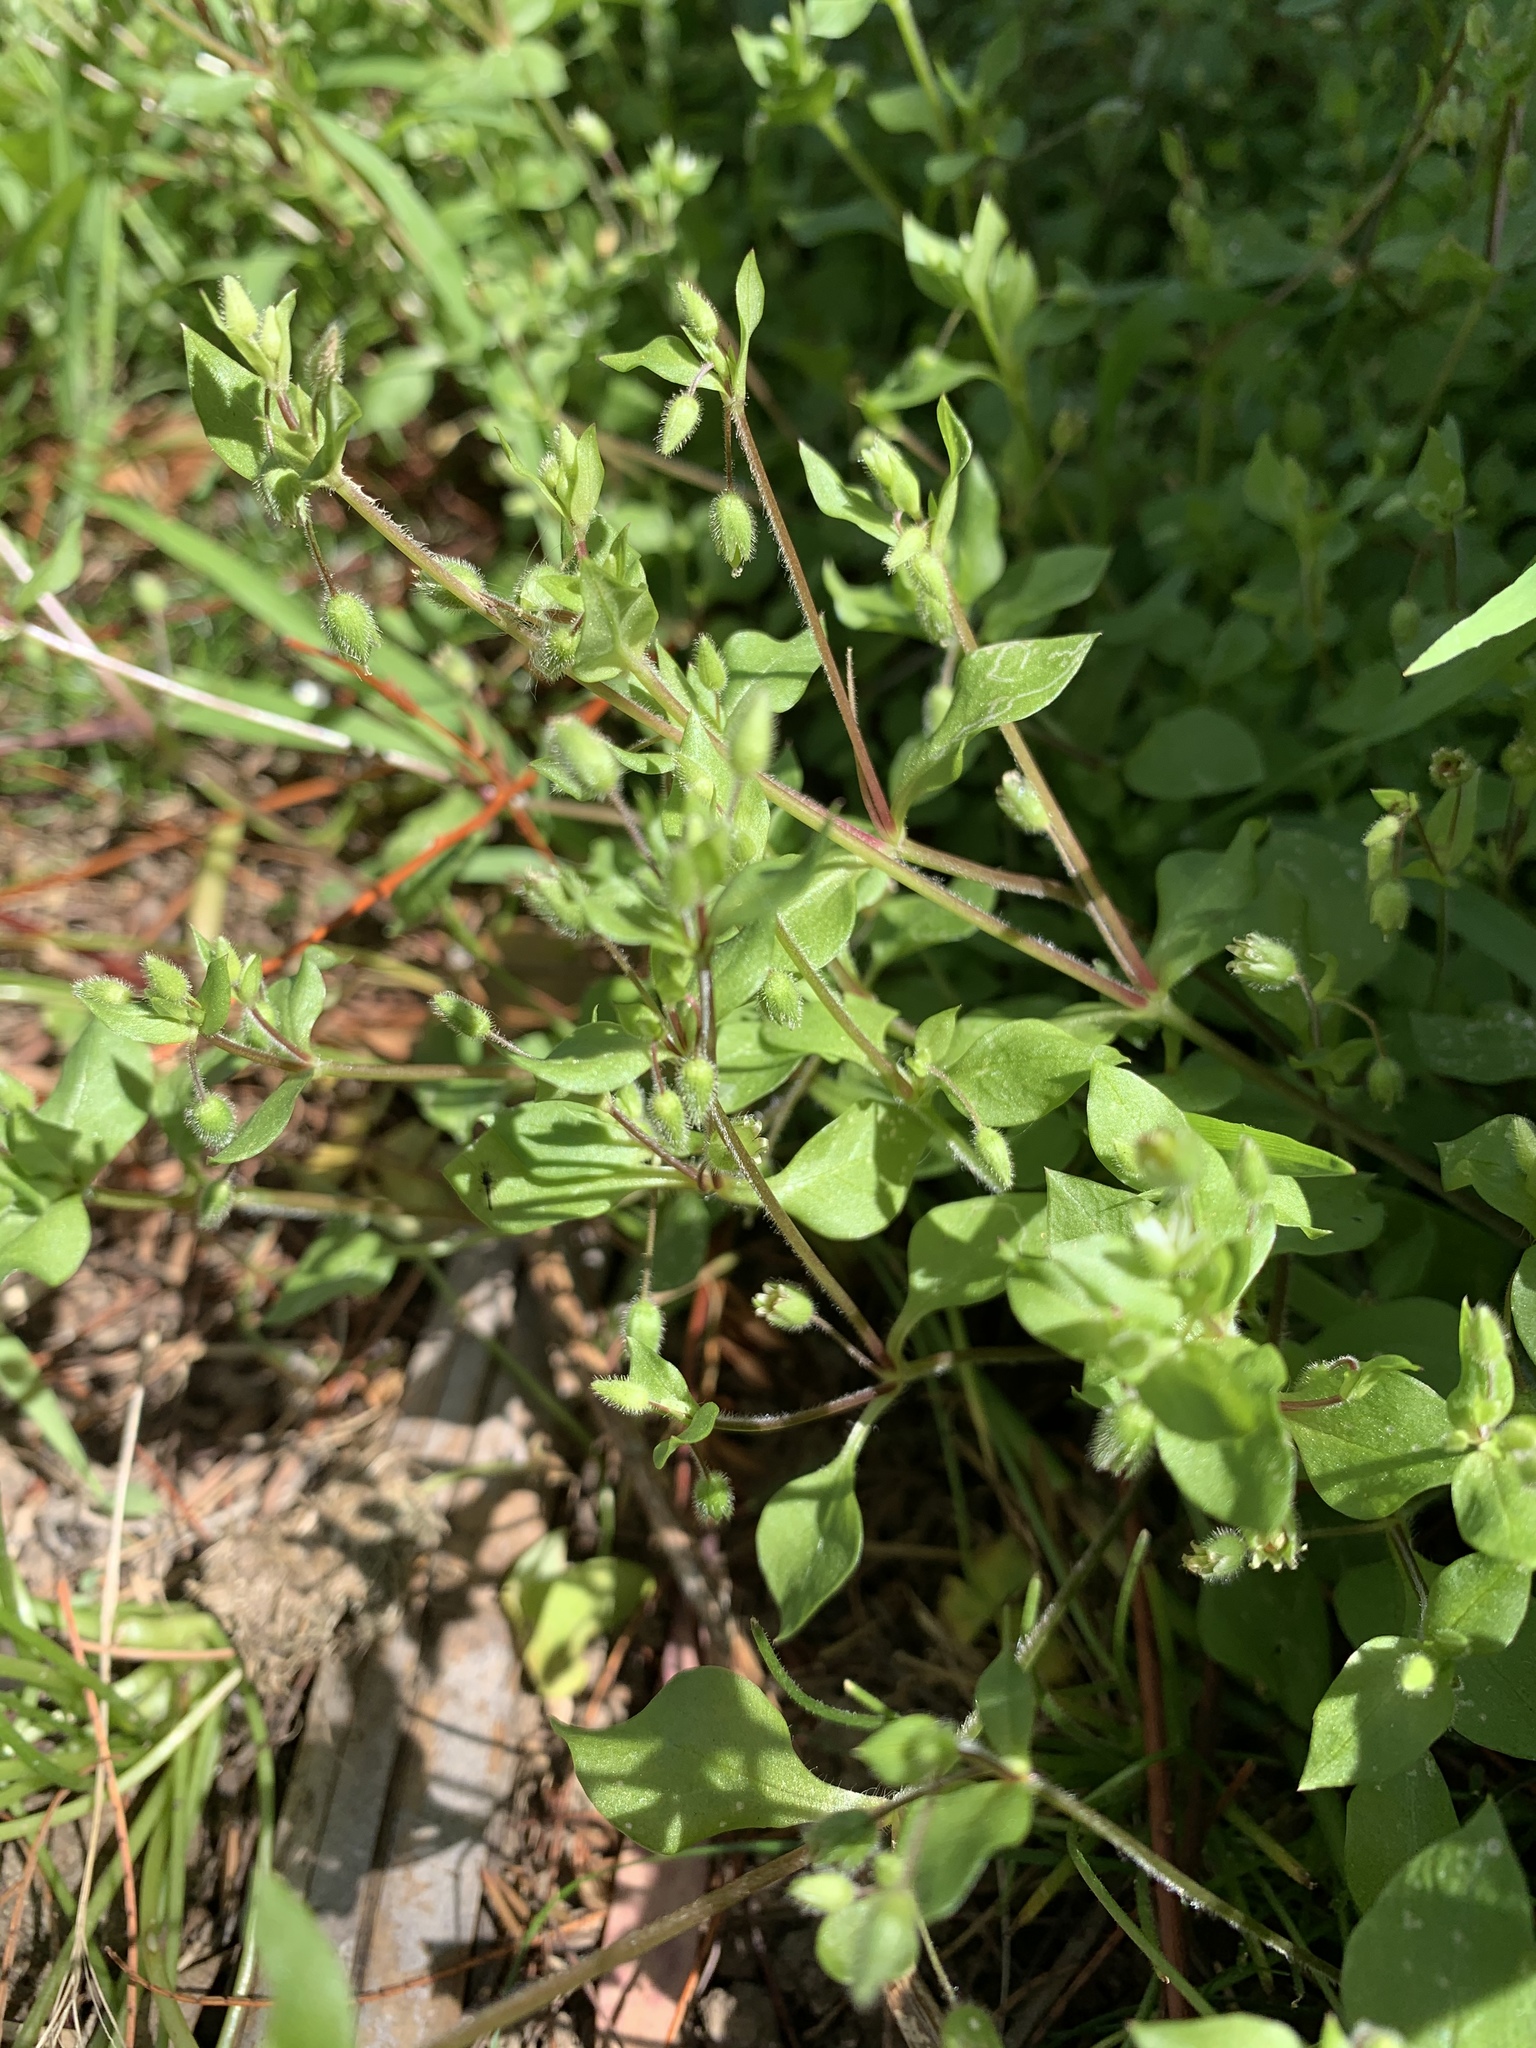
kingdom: Plantae
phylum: Tracheophyta
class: Magnoliopsida
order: Caryophyllales
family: Caryophyllaceae
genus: Stellaria
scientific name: Stellaria media
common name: Common chickweed
